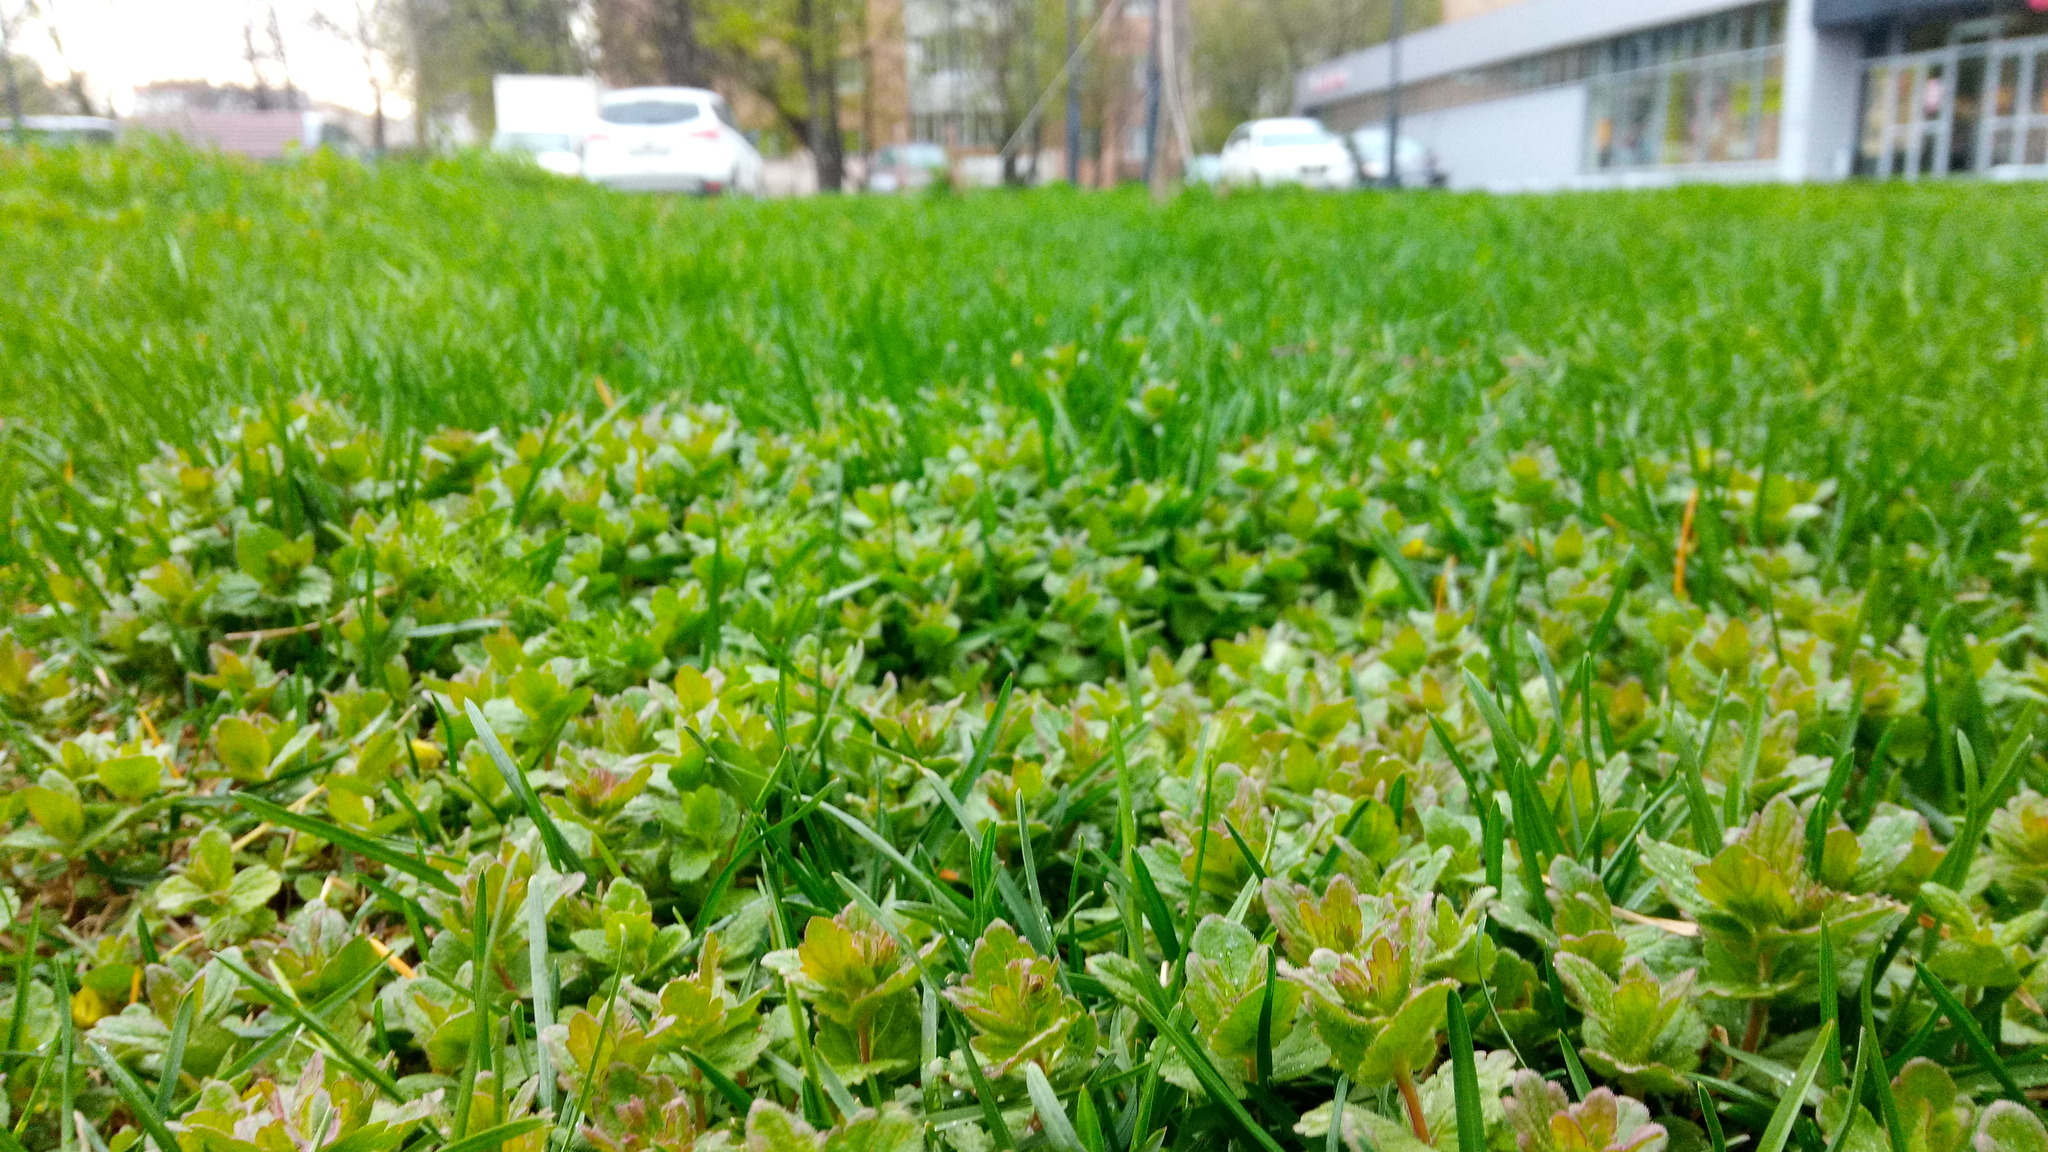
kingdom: Plantae
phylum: Tracheophyta
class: Magnoliopsida
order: Lamiales
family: Plantaginaceae
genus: Veronica
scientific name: Veronica chamaedrys
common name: Germander speedwell
